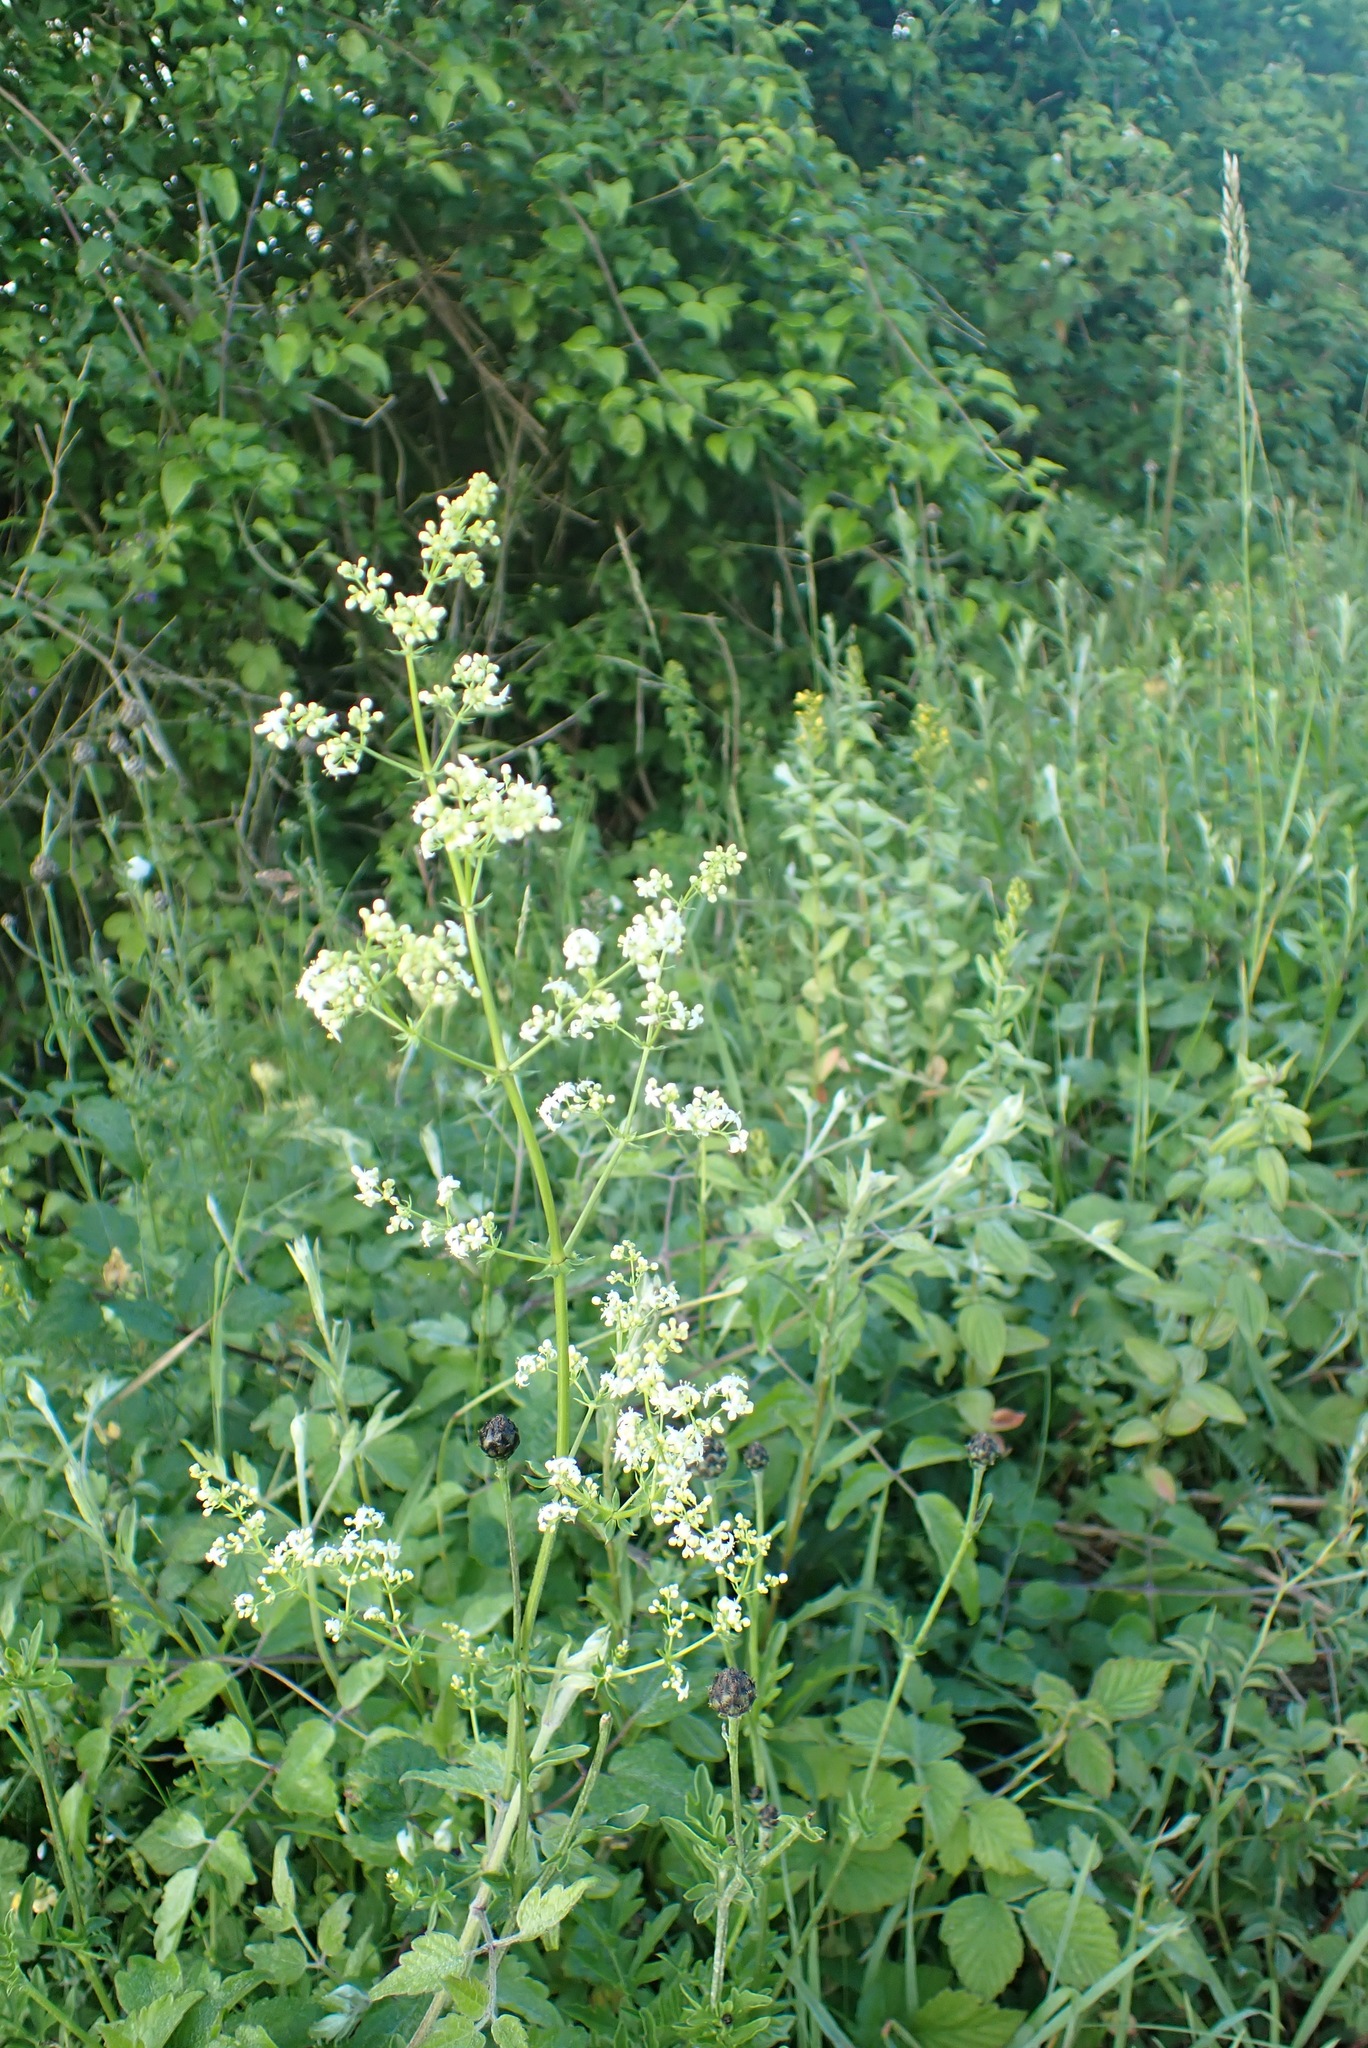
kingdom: Plantae
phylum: Tracheophyta
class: Magnoliopsida
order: Gentianales
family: Rubiaceae
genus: Galium
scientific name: Galium mollugo
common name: Hedge bedstraw
